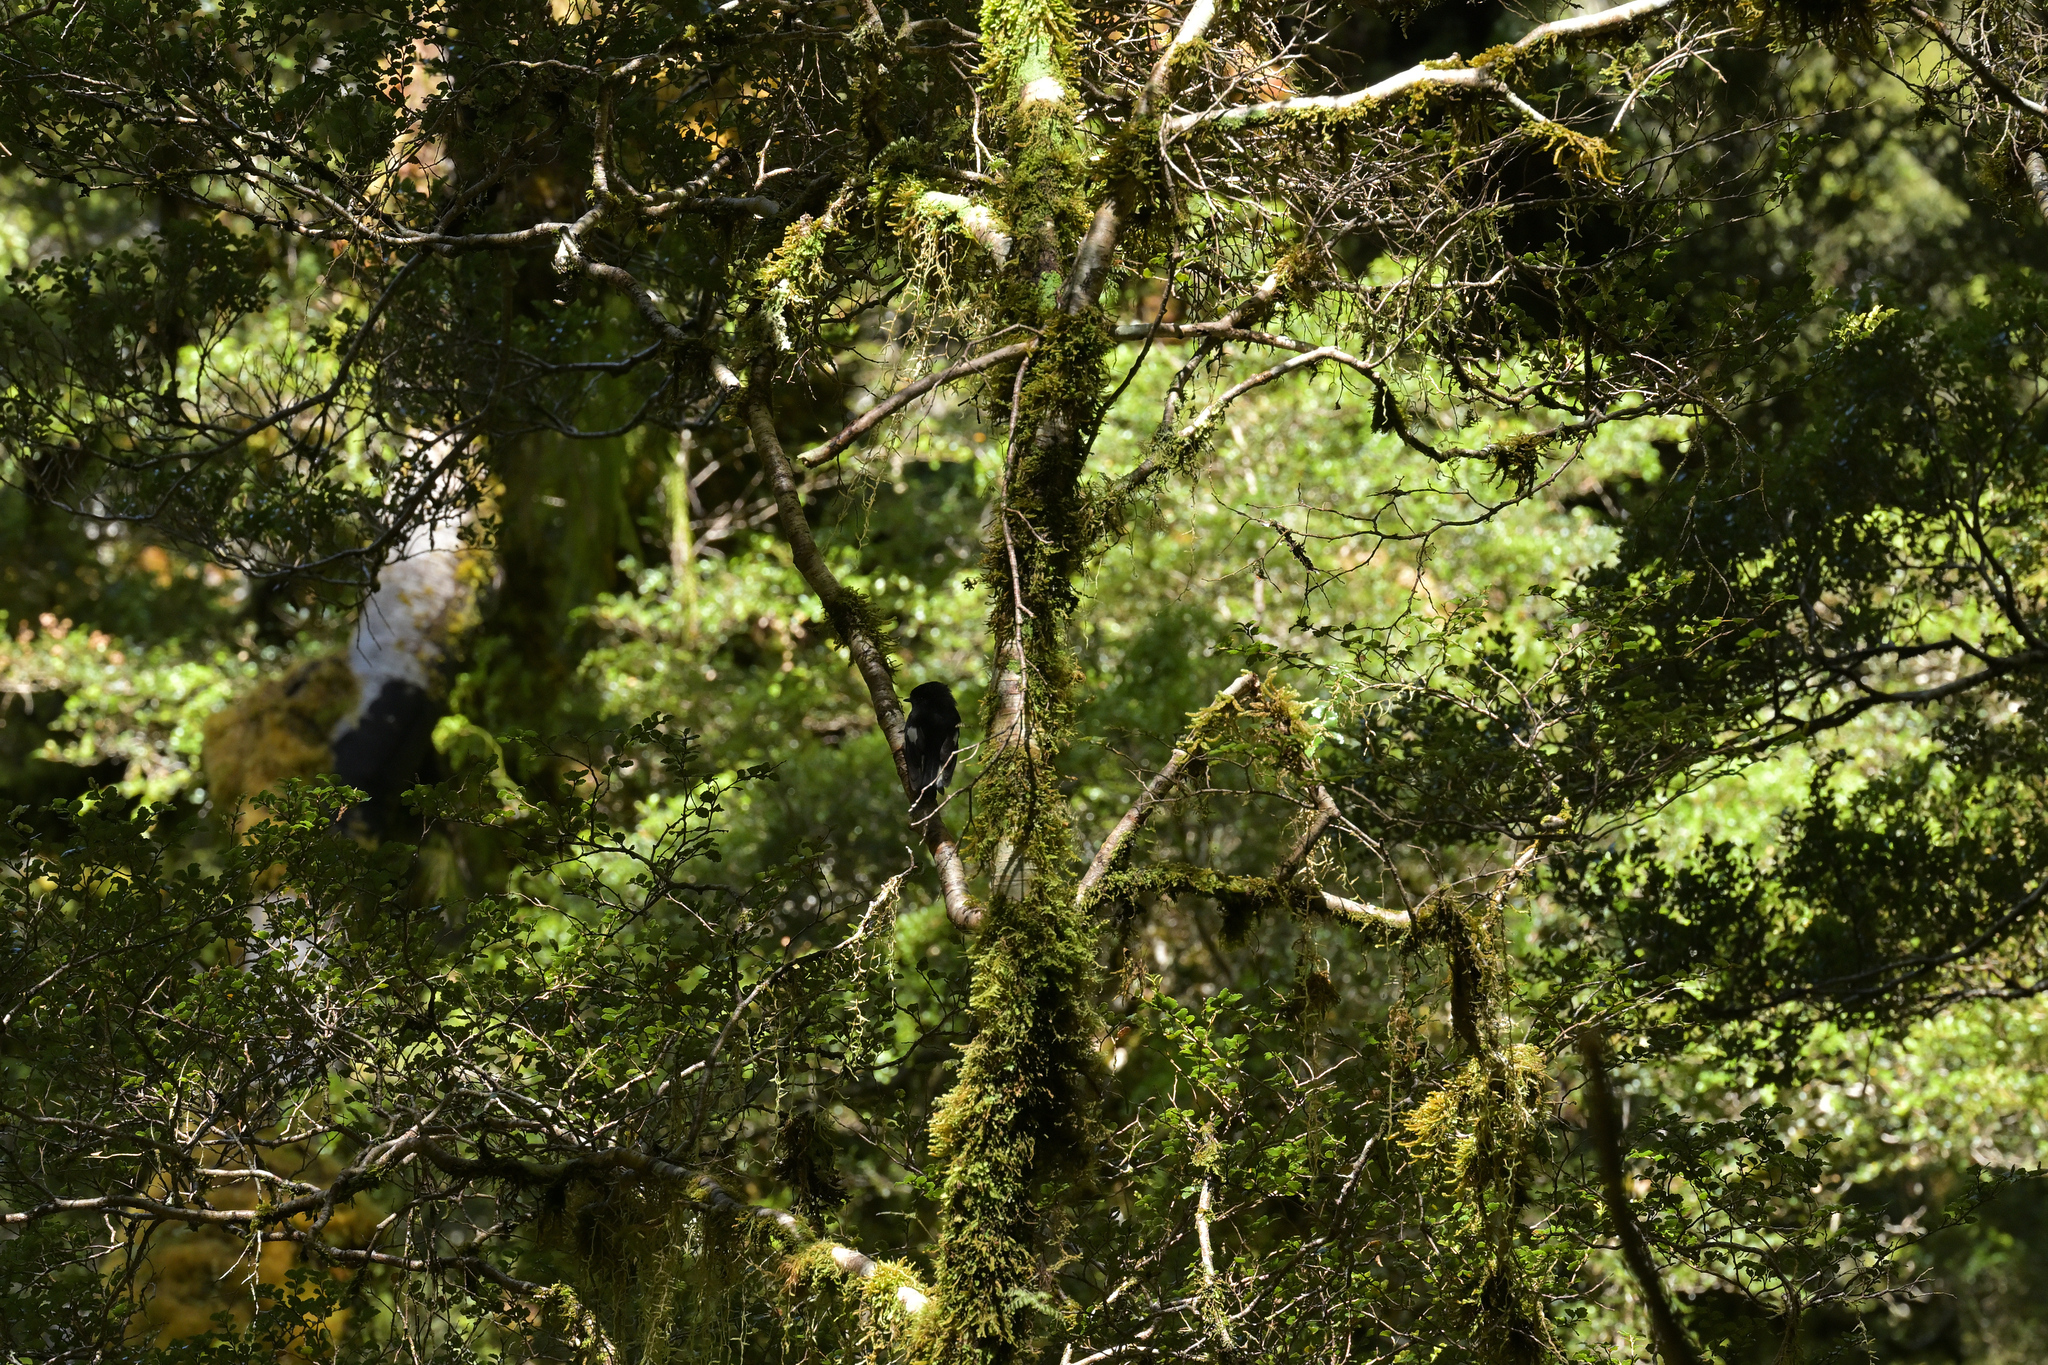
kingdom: Animalia
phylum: Chordata
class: Aves
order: Passeriformes
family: Petroicidae
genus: Petroica
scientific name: Petroica macrocephala
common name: Tomtit
